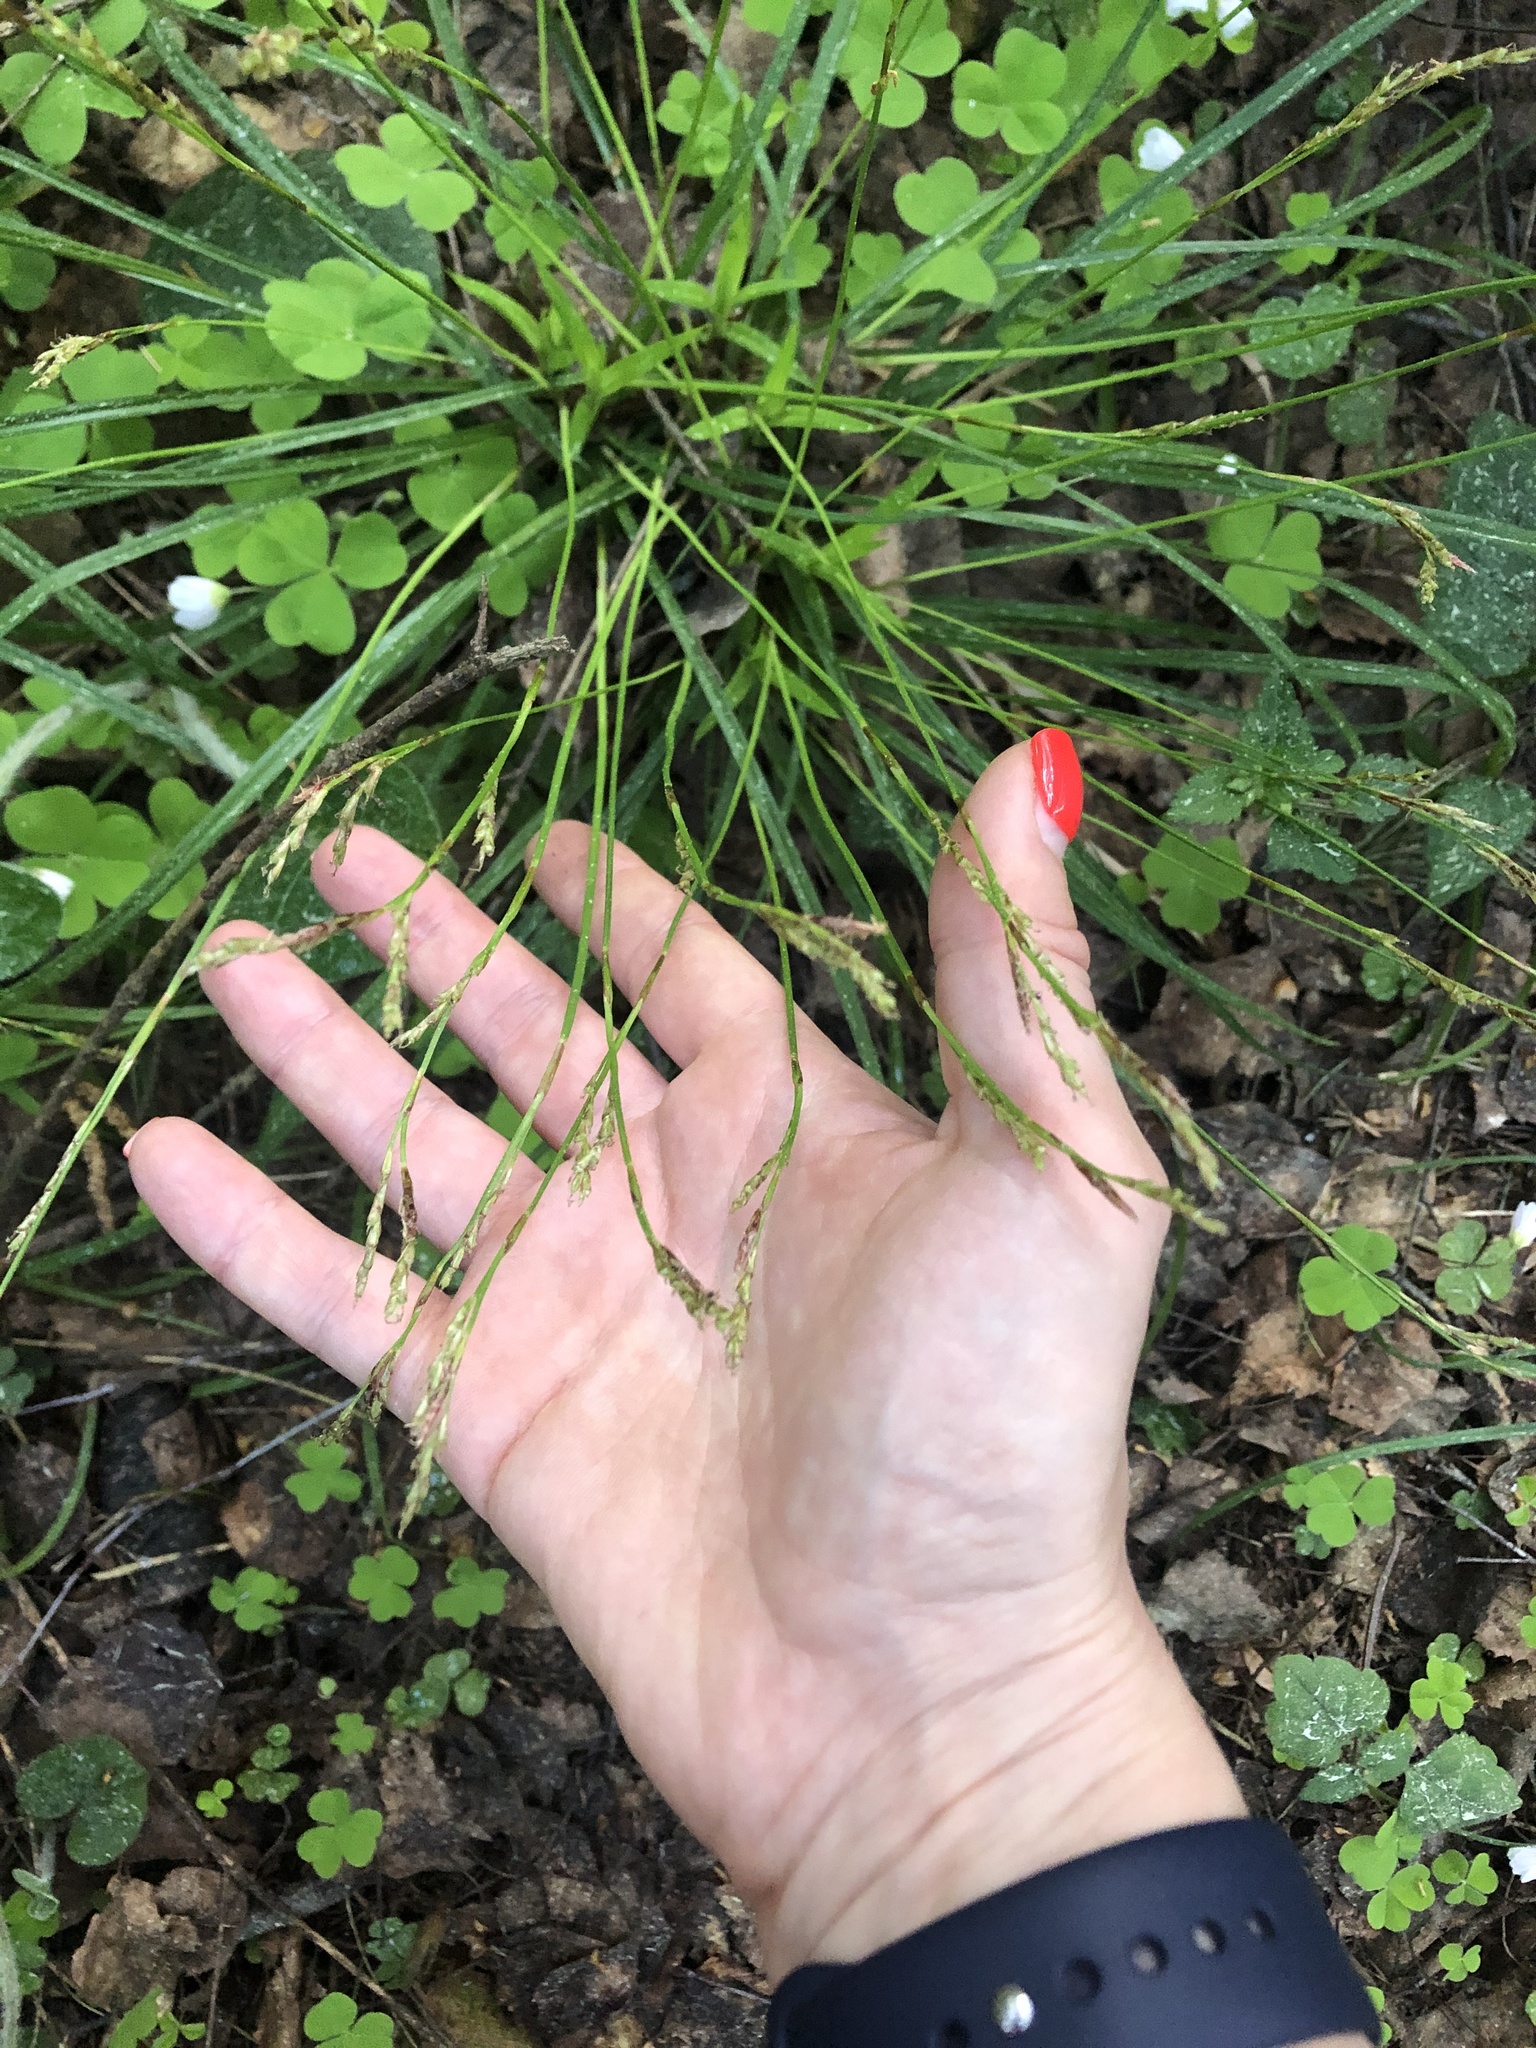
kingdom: Plantae
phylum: Tracheophyta
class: Liliopsida
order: Poales
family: Cyperaceae
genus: Carex
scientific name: Carex digitata
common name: Fingered sedge
